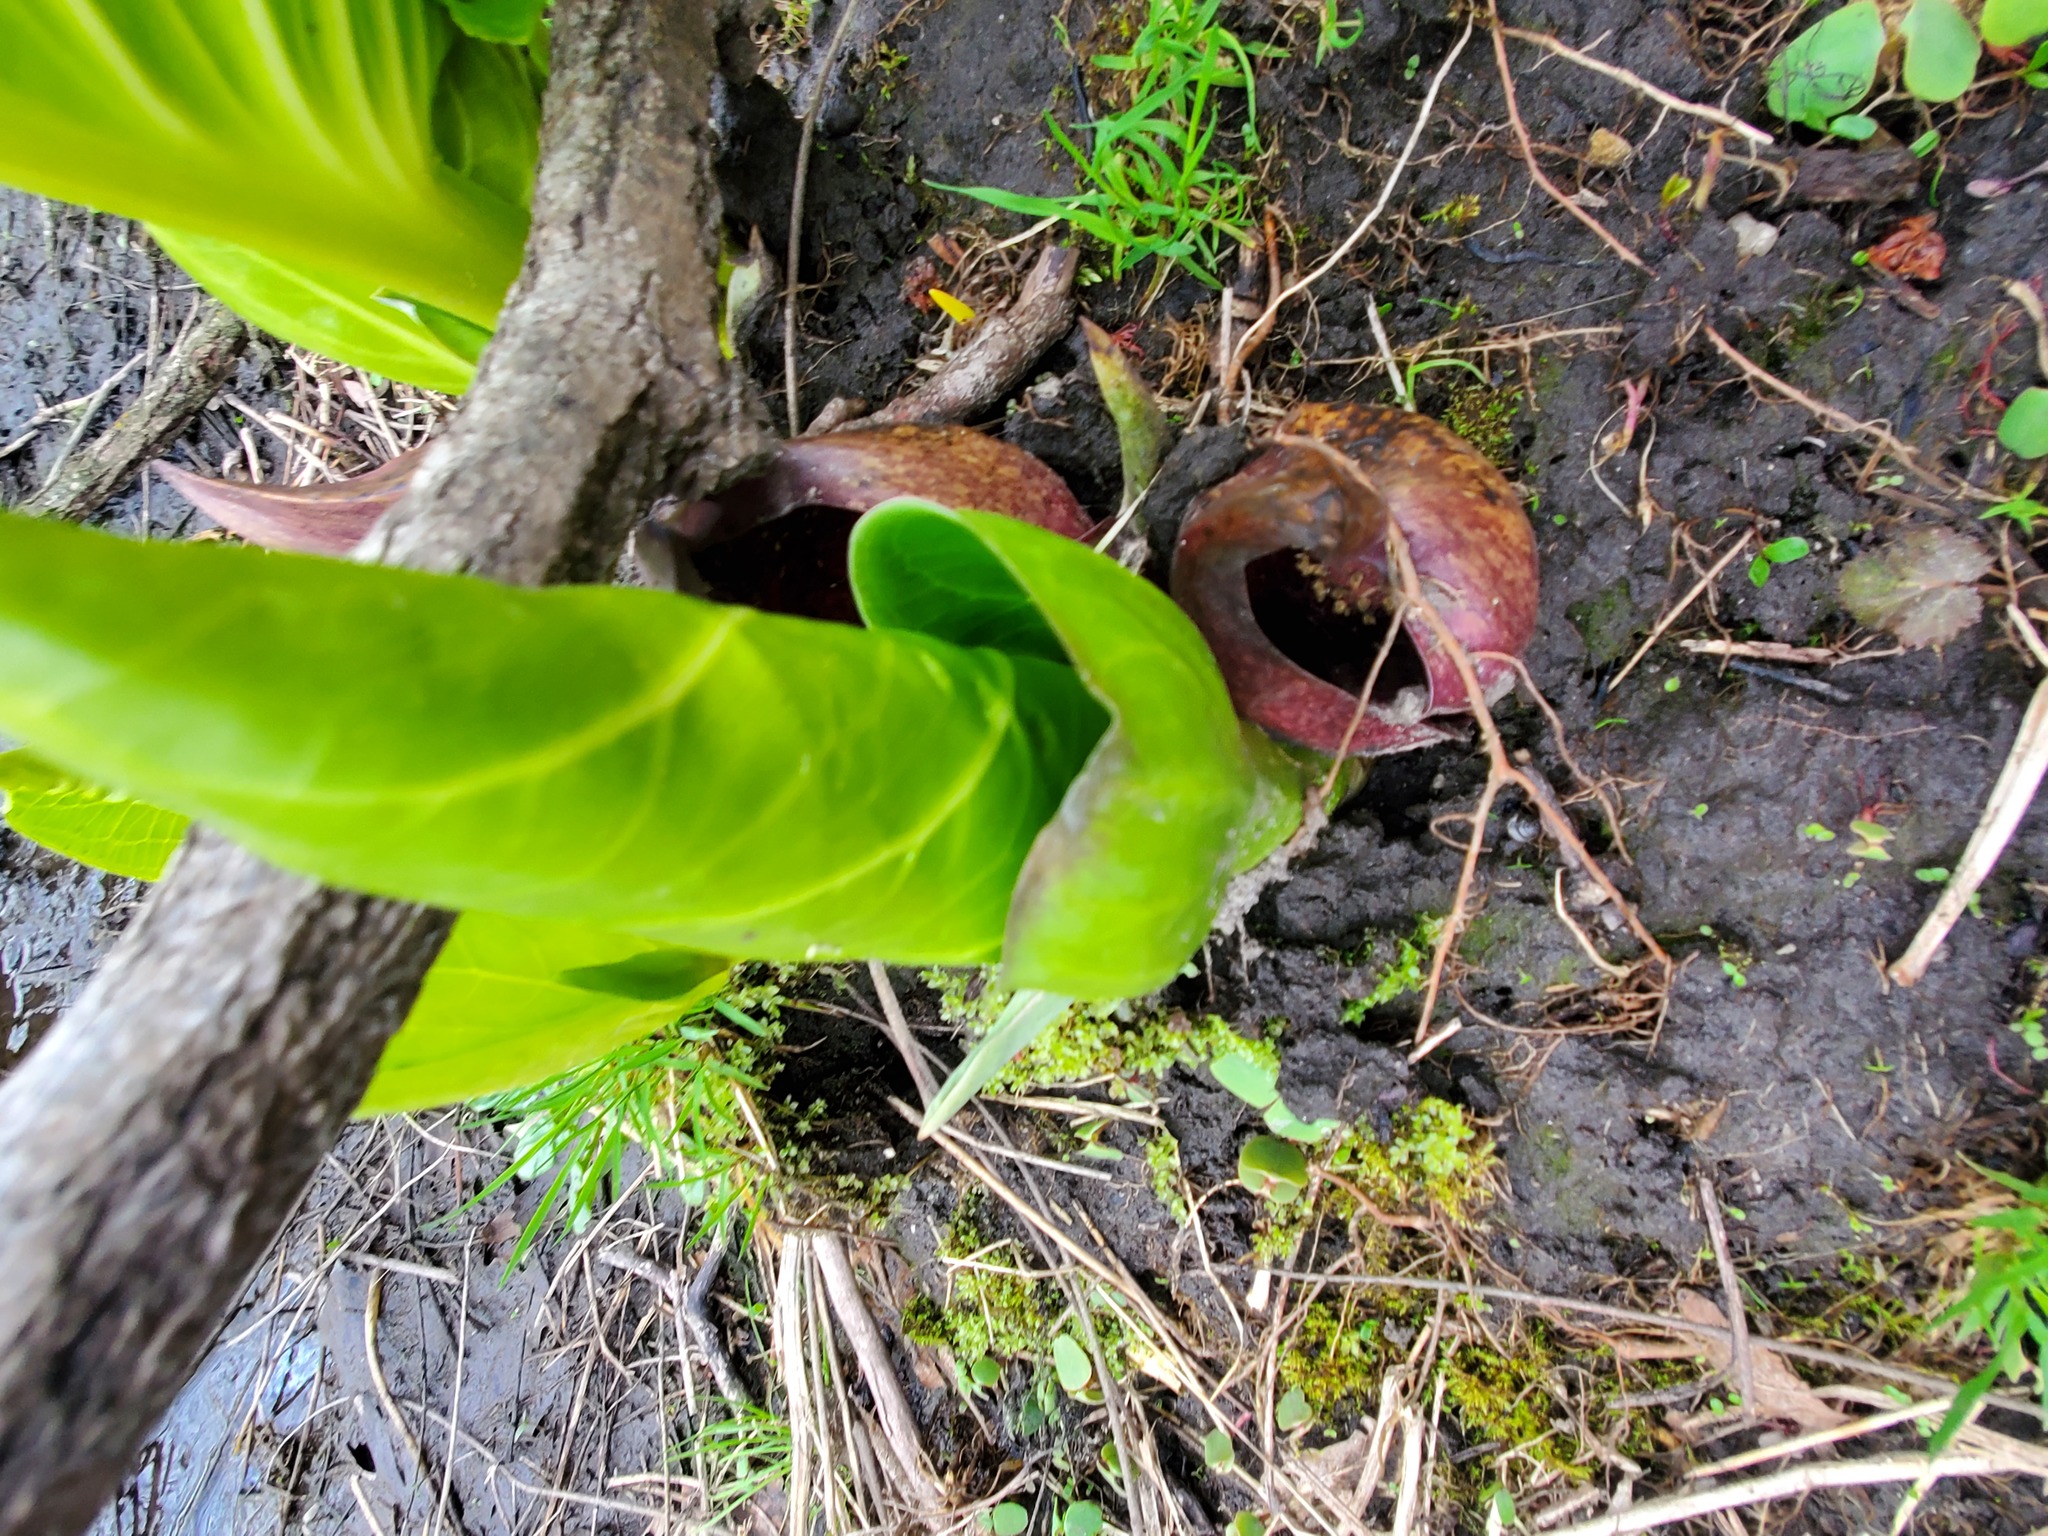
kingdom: Plantae
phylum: Tracheophyta
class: Liliopsida
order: Alismatales
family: Araceae
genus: Symplocarpus
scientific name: Symplocarpus foetidus
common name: Eastern skunk cabbage
